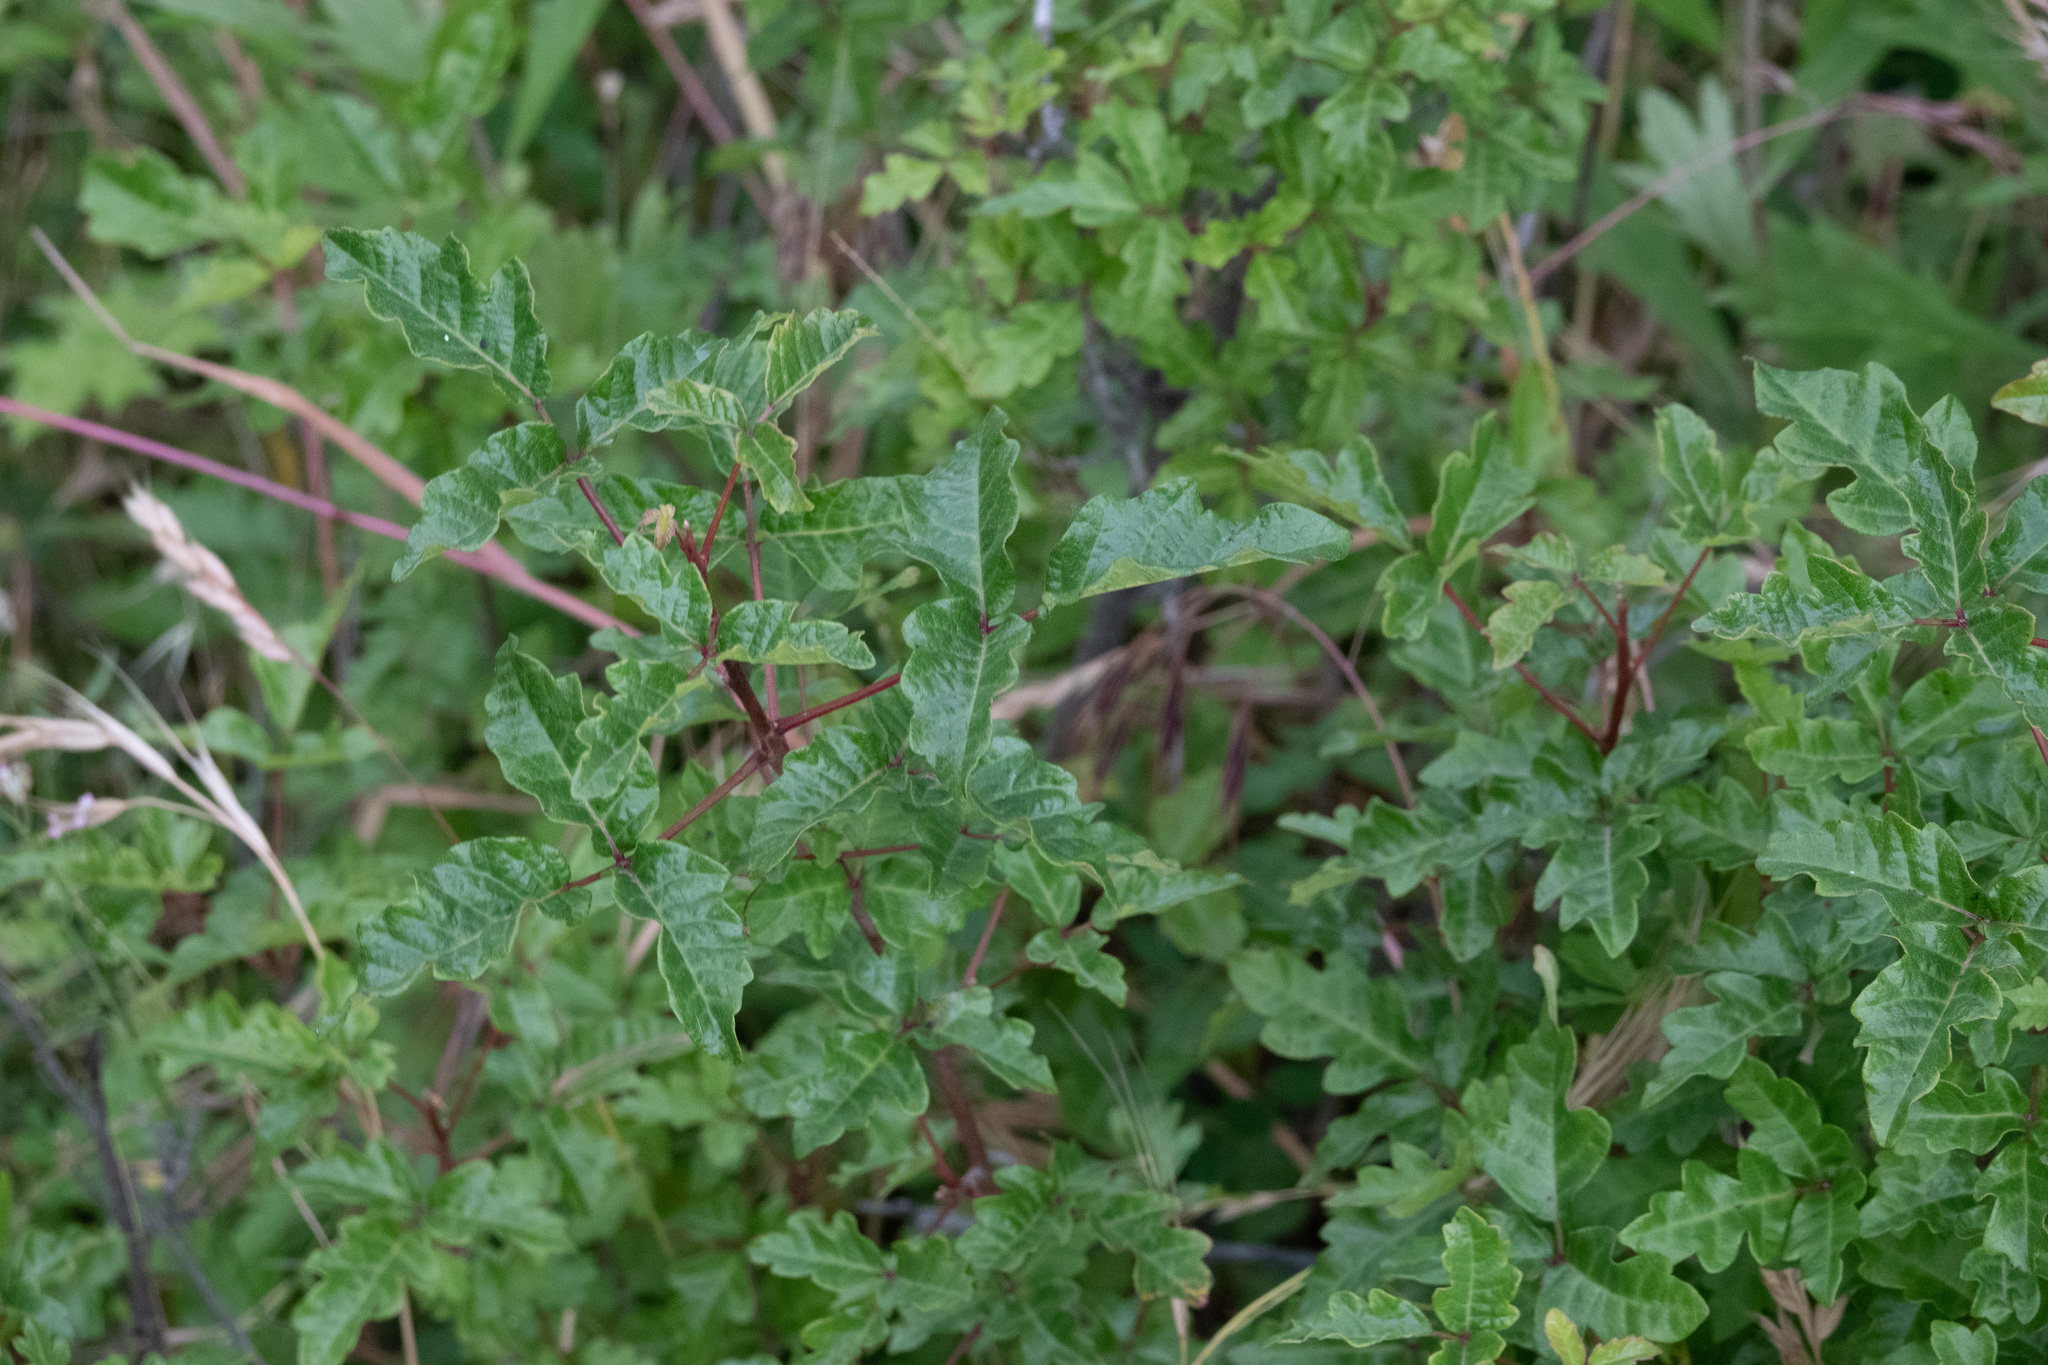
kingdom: Plantae
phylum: Tracheophyta
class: Magnoliopsida
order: Sapindales
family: Anacardiaceae
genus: Toxicodendron
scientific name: Toxicodendron diversilobum
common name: Pacific poison-oak
